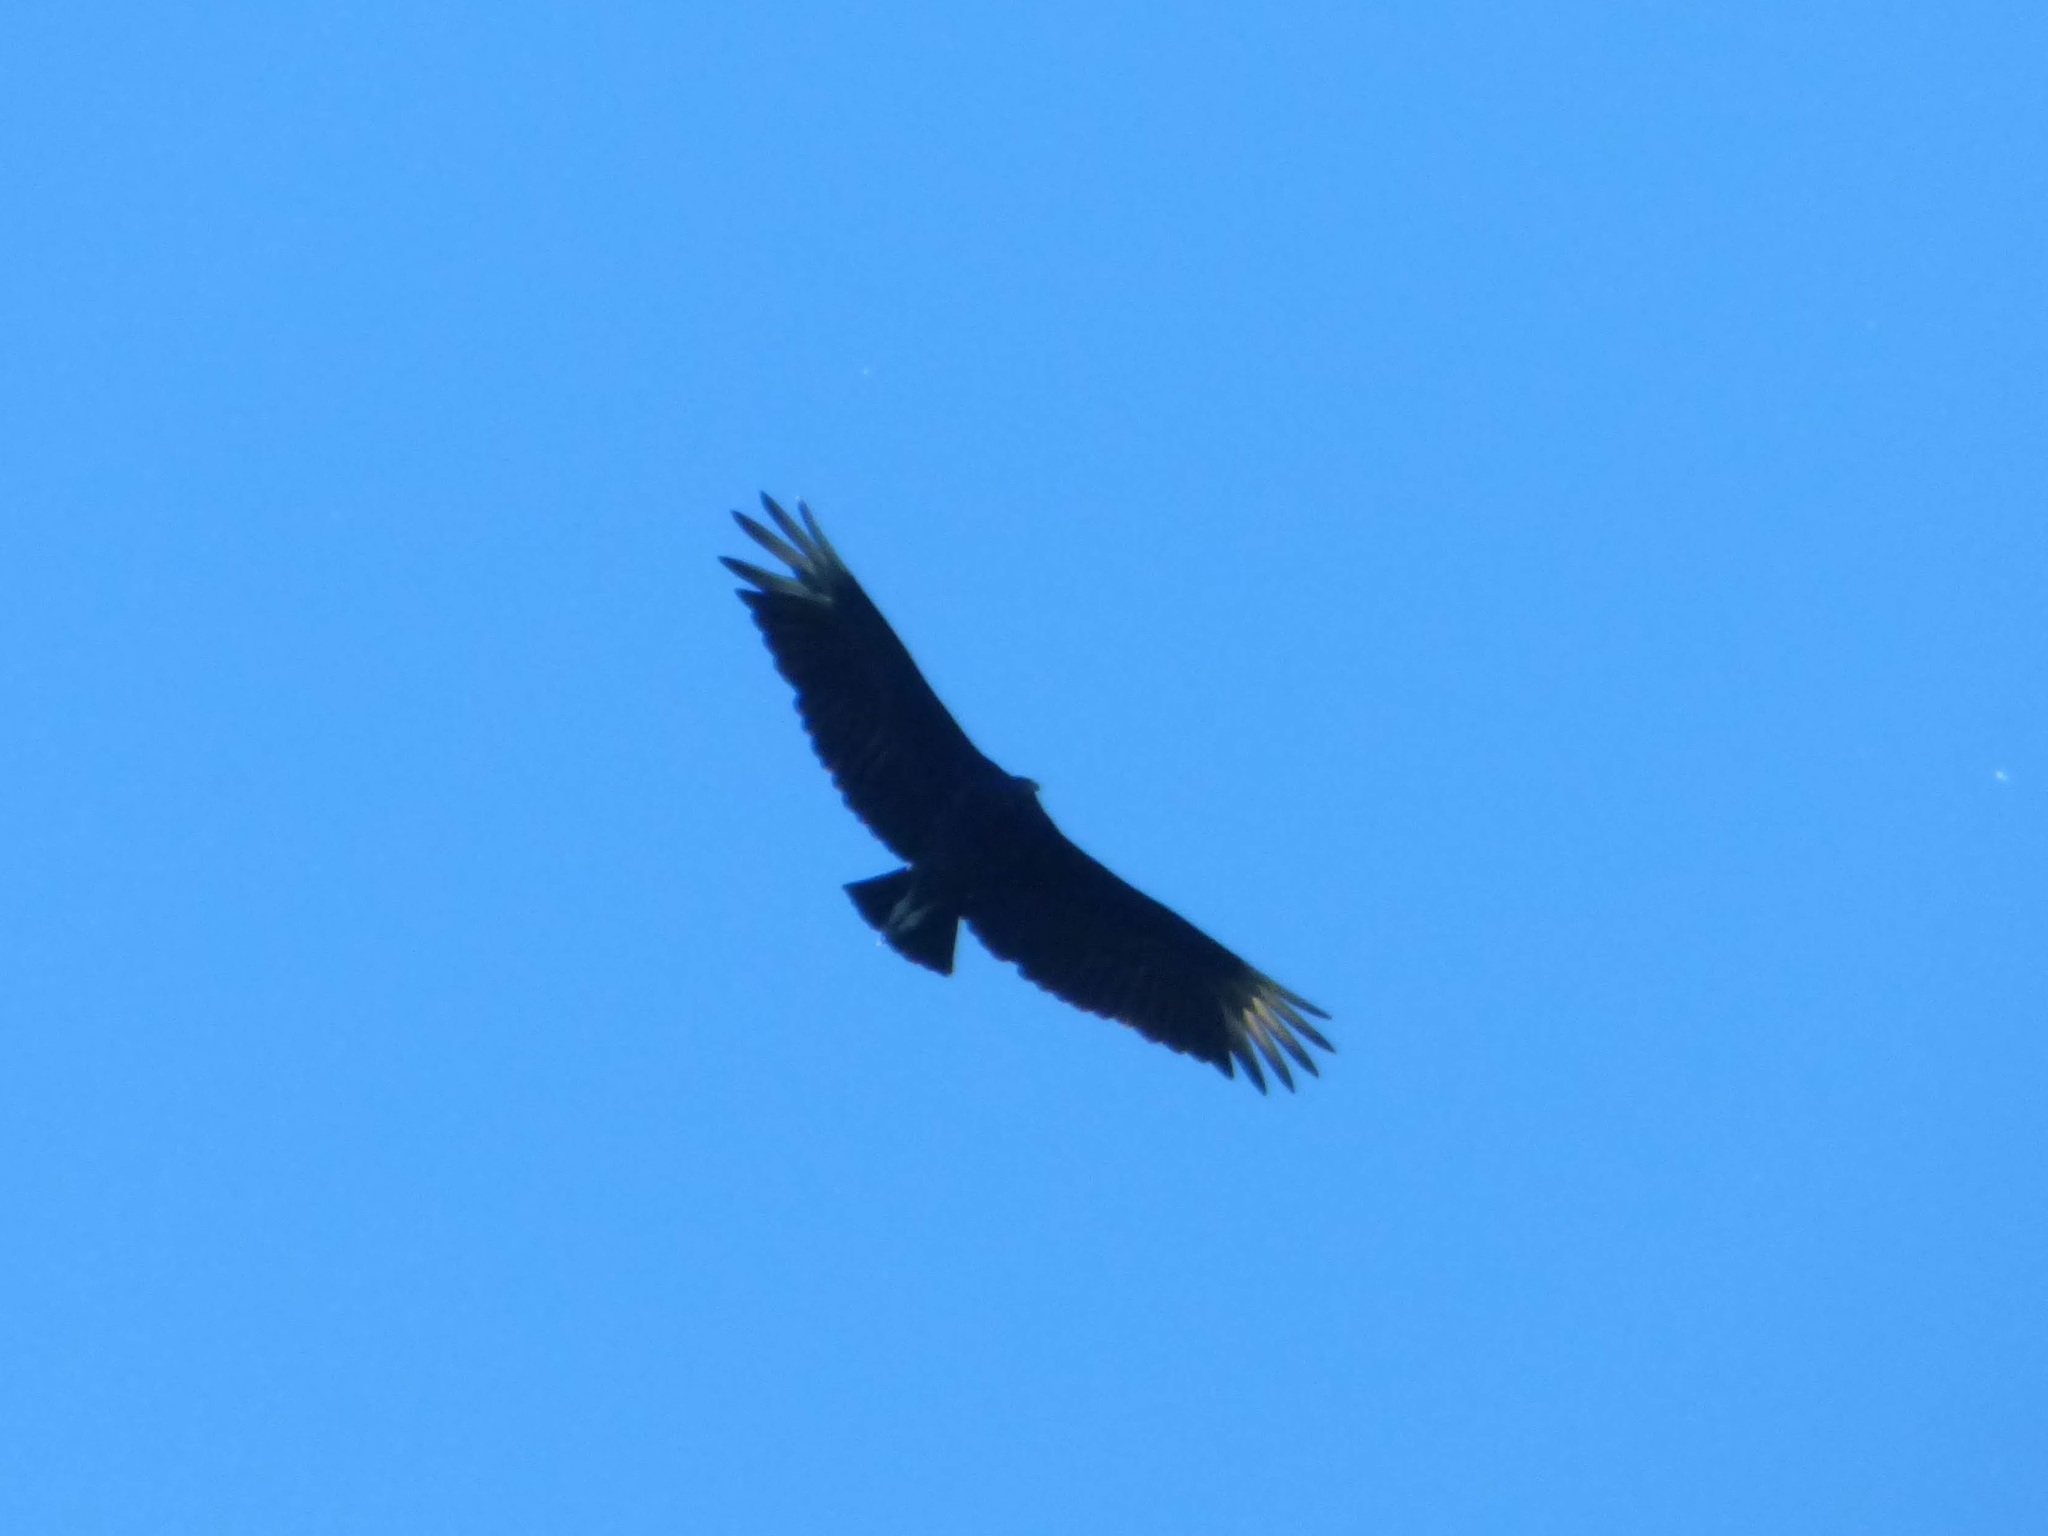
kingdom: Animalia
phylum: Chordata
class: Aves
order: Accipitriformes
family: Cathartidae
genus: Coragyps
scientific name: Coragyps atratus
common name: Black vulture
